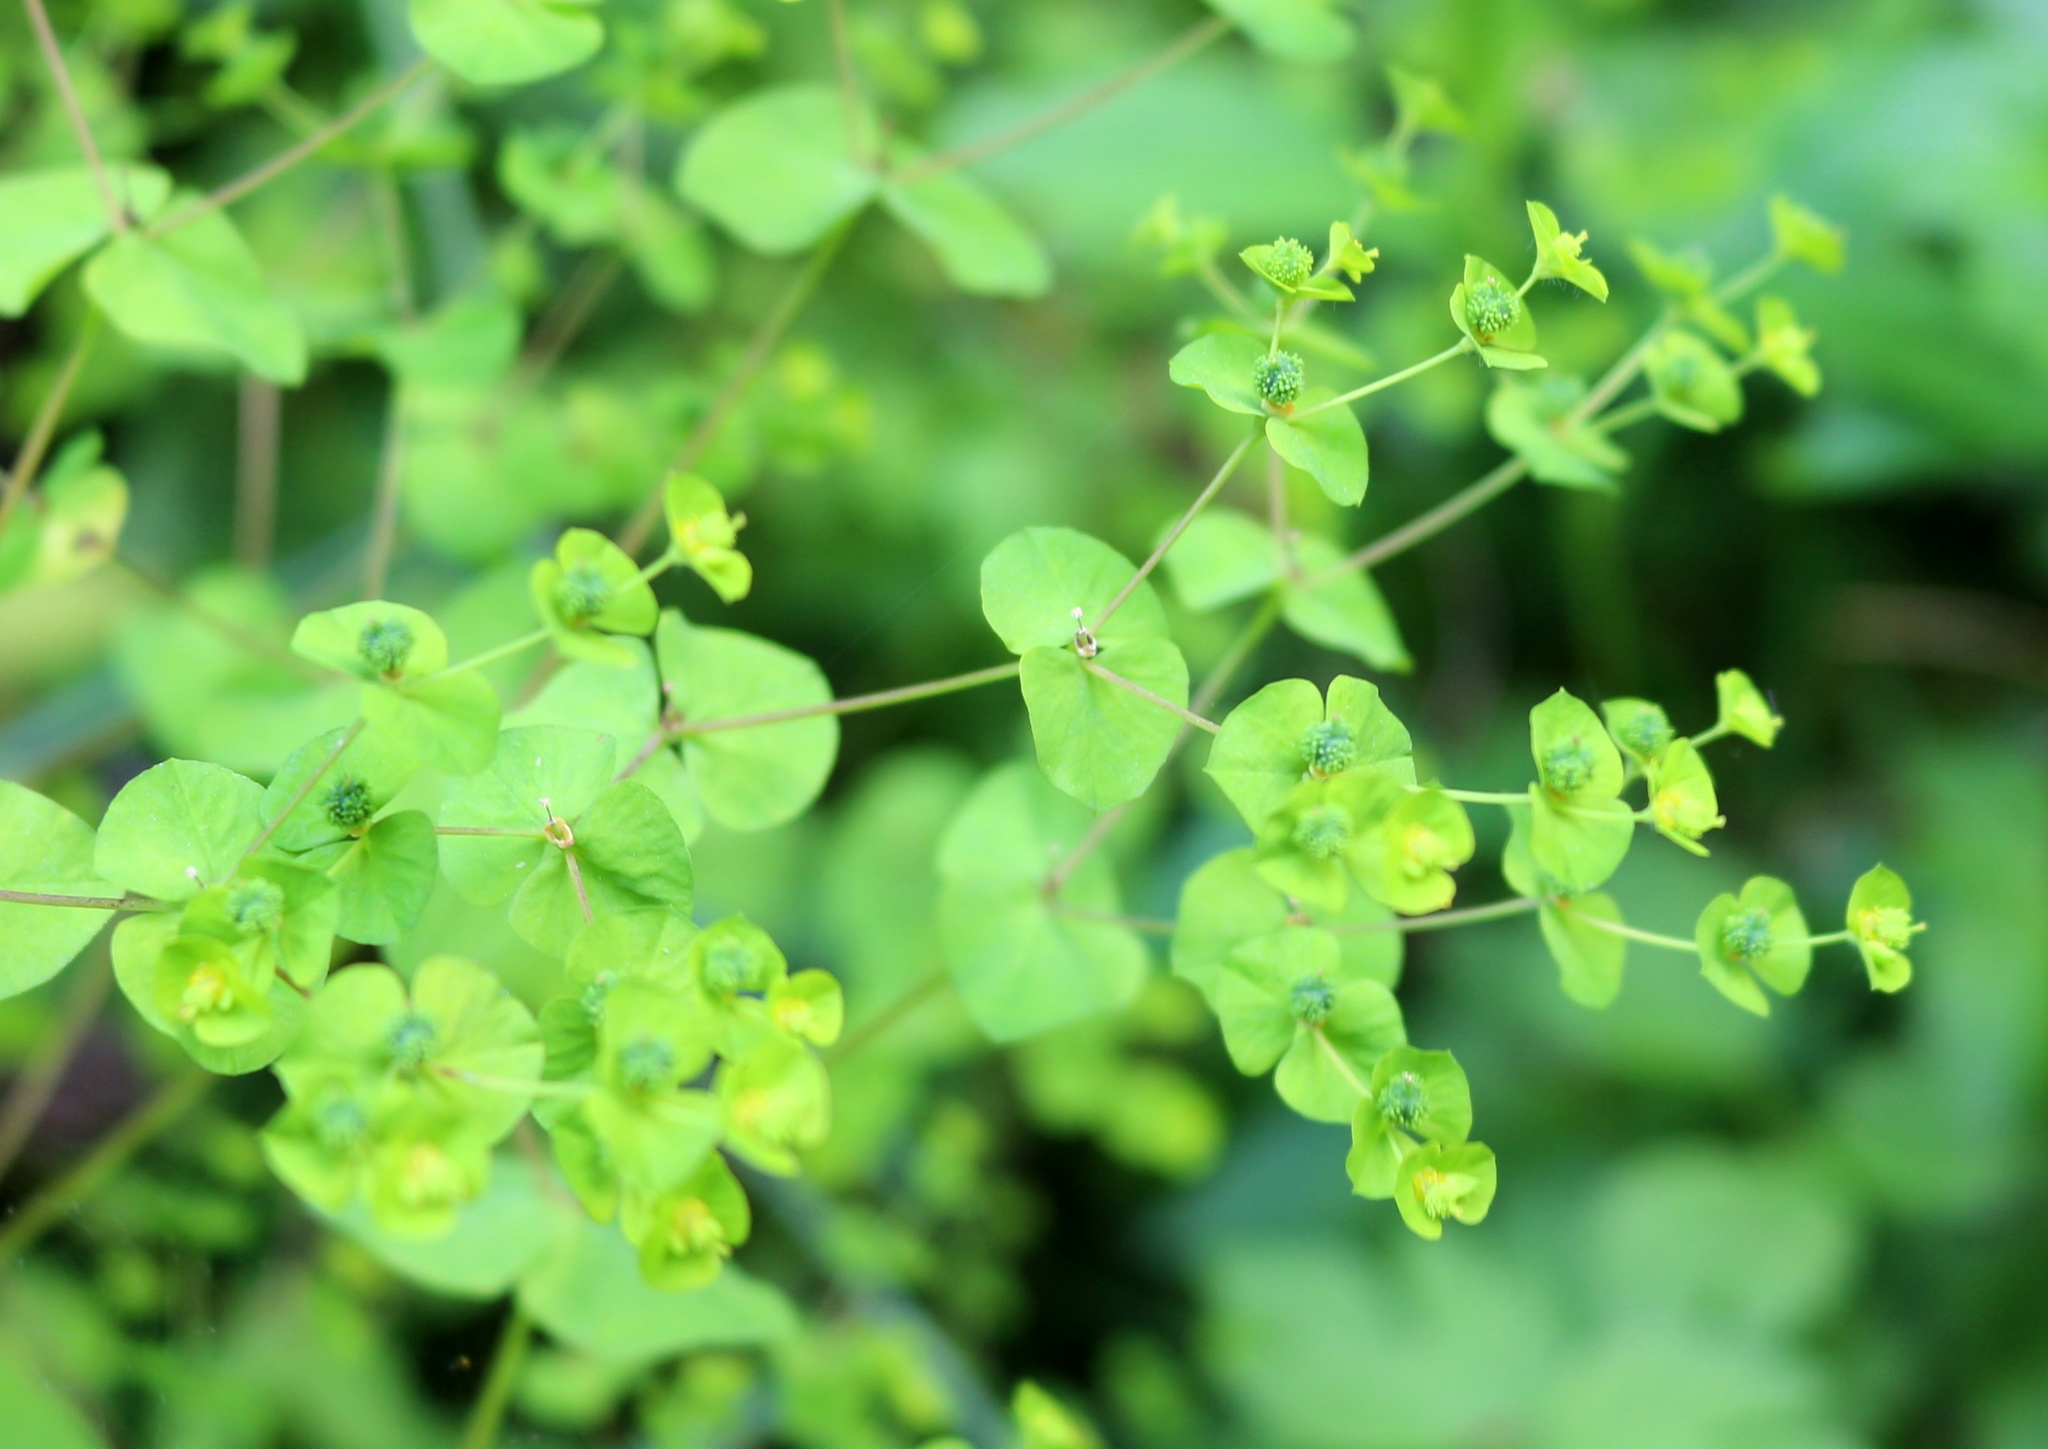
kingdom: Plantae
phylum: Tracheophyta
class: Magnoliopsida
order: Malpighiales
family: Euphorbiaceae
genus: Euphorbia
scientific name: Euphorbia squamosa
